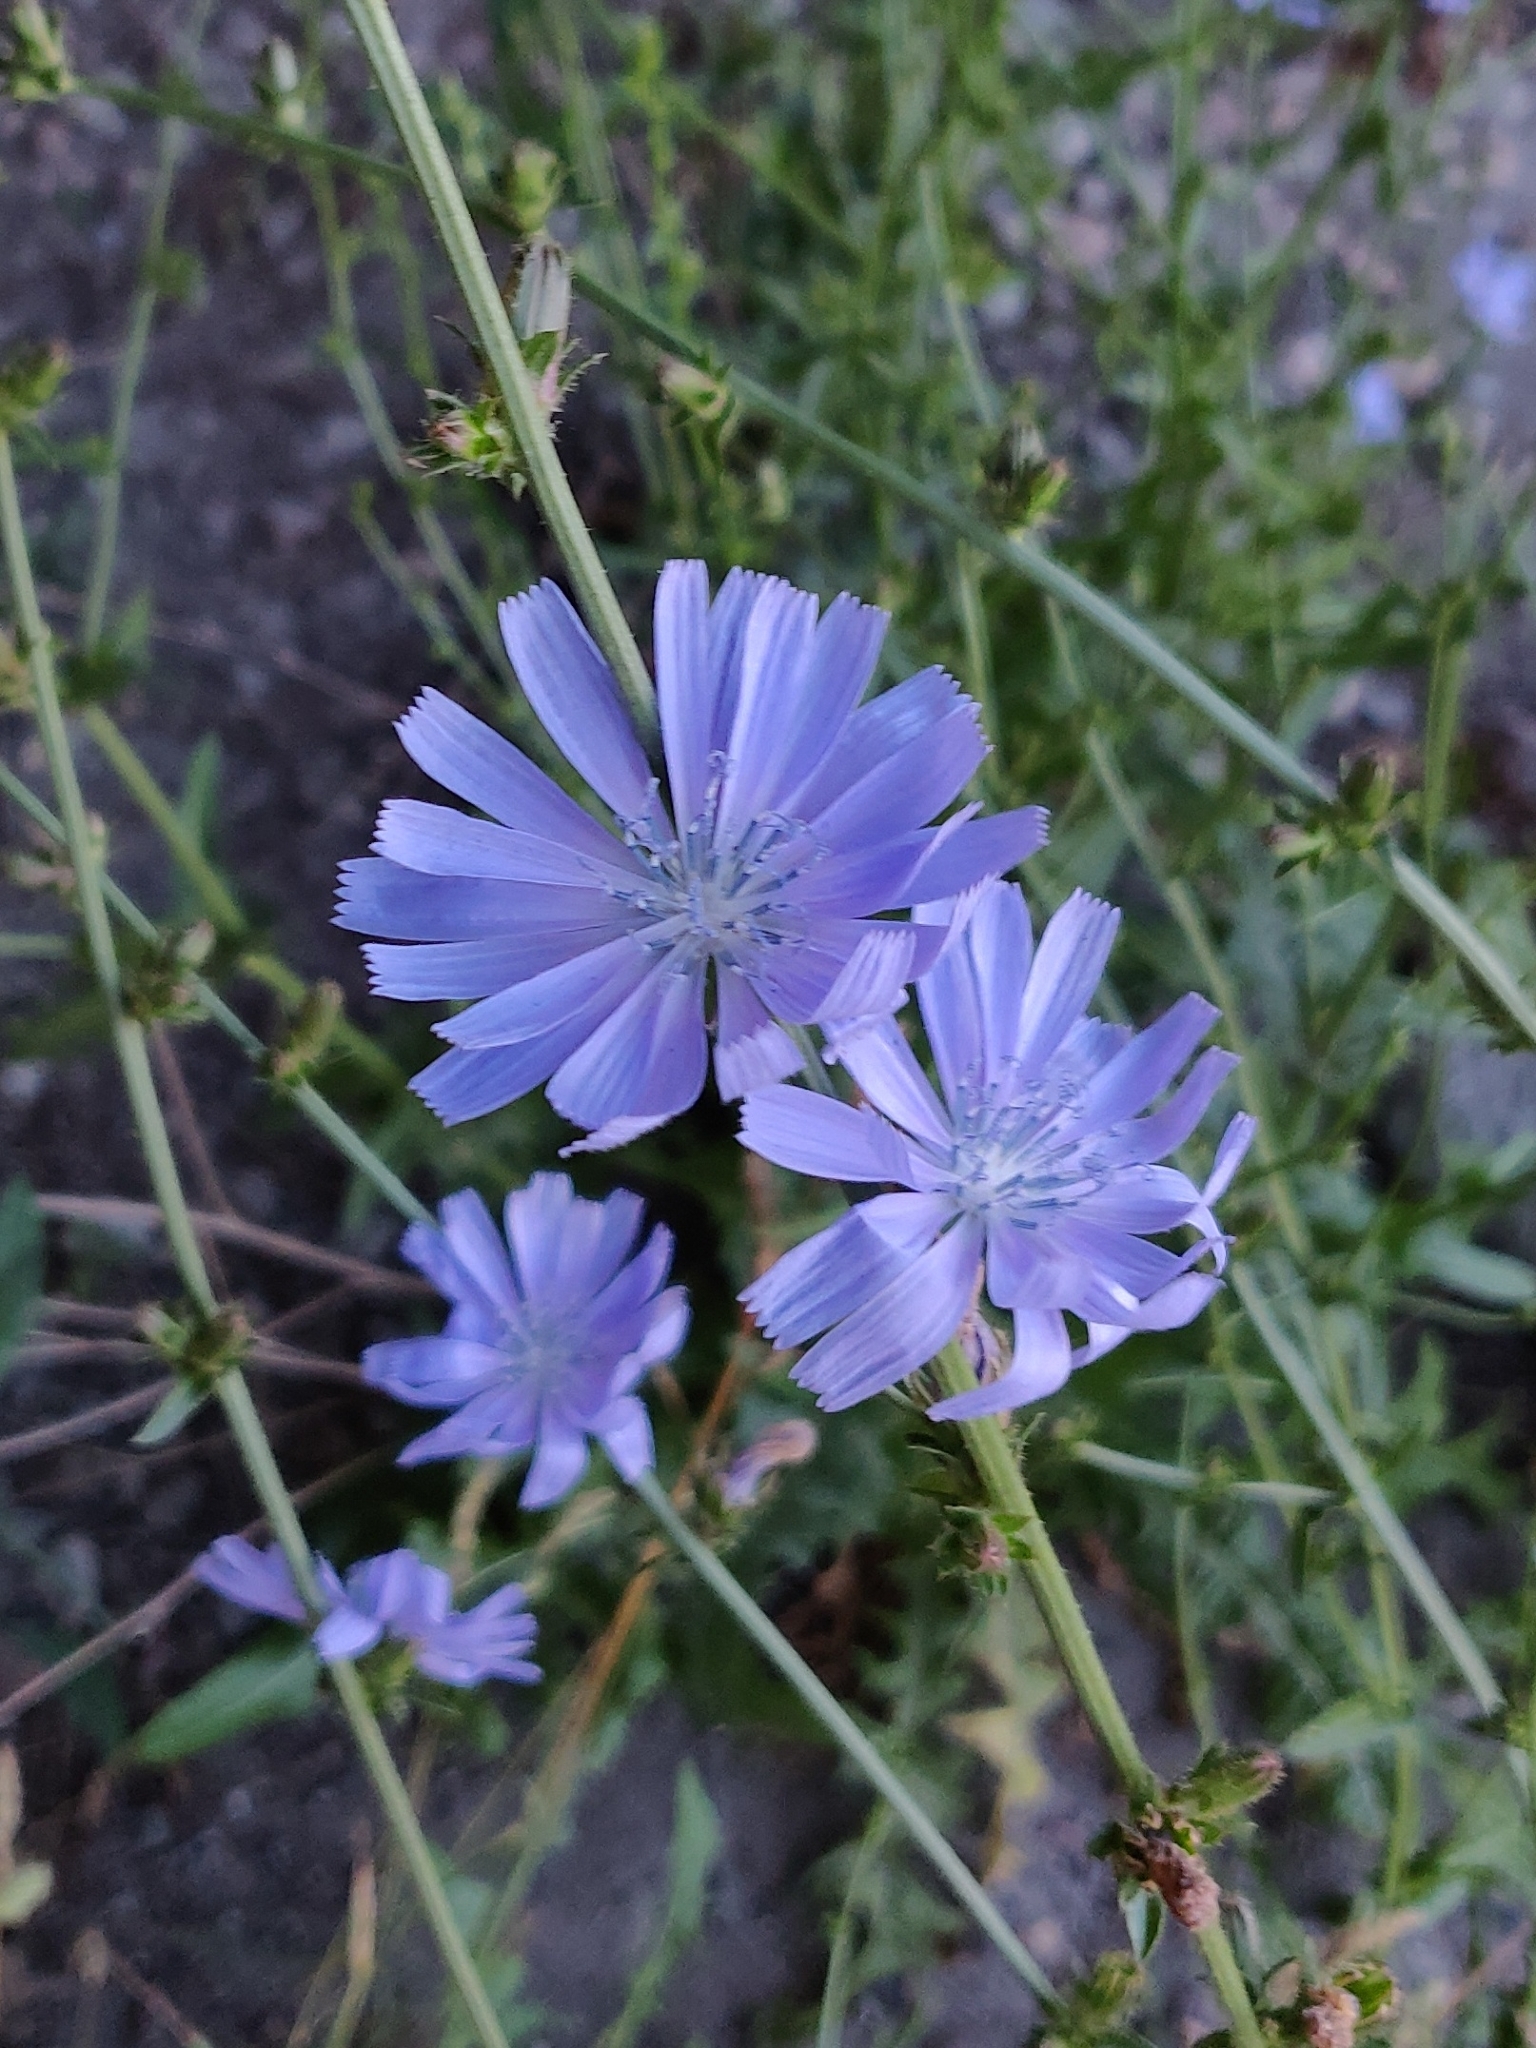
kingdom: Plantae
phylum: Tracheophyta
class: Magnoliopsida
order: Asterales
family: Asteraceae
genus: Cichorium
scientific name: Cichorium intybus
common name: Chicory
